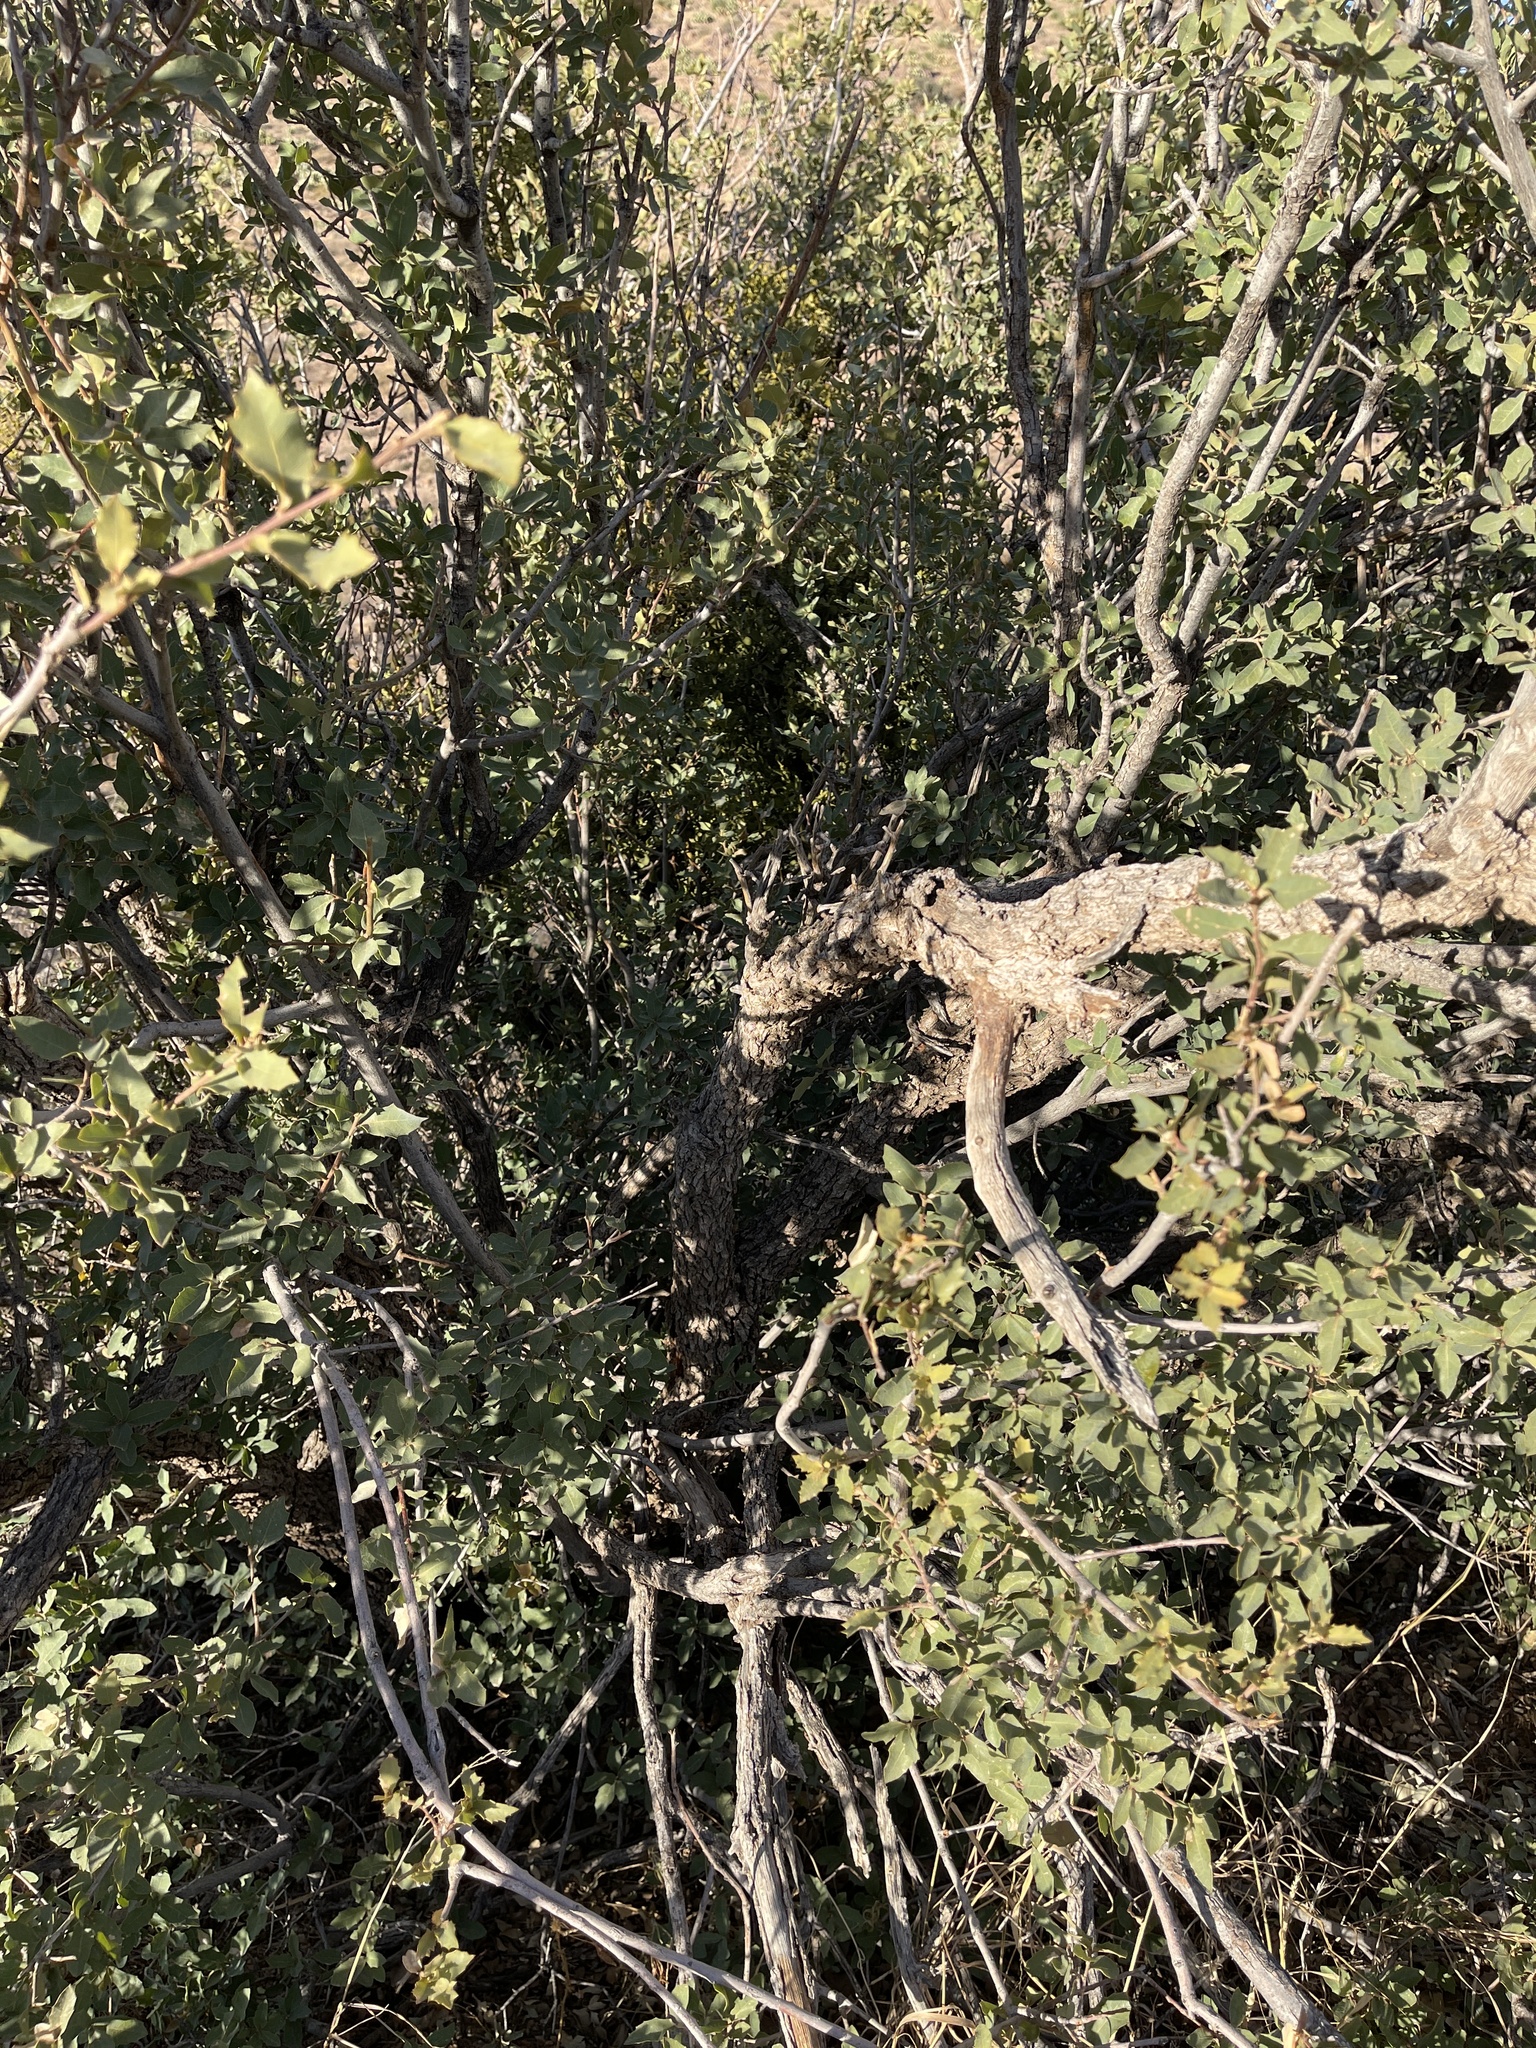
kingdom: Plantae
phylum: Tracheophyta
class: Magnoliopsida
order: Fagales
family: Fagaceae
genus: Quercus
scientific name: Quercus grisea
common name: Gray oak
